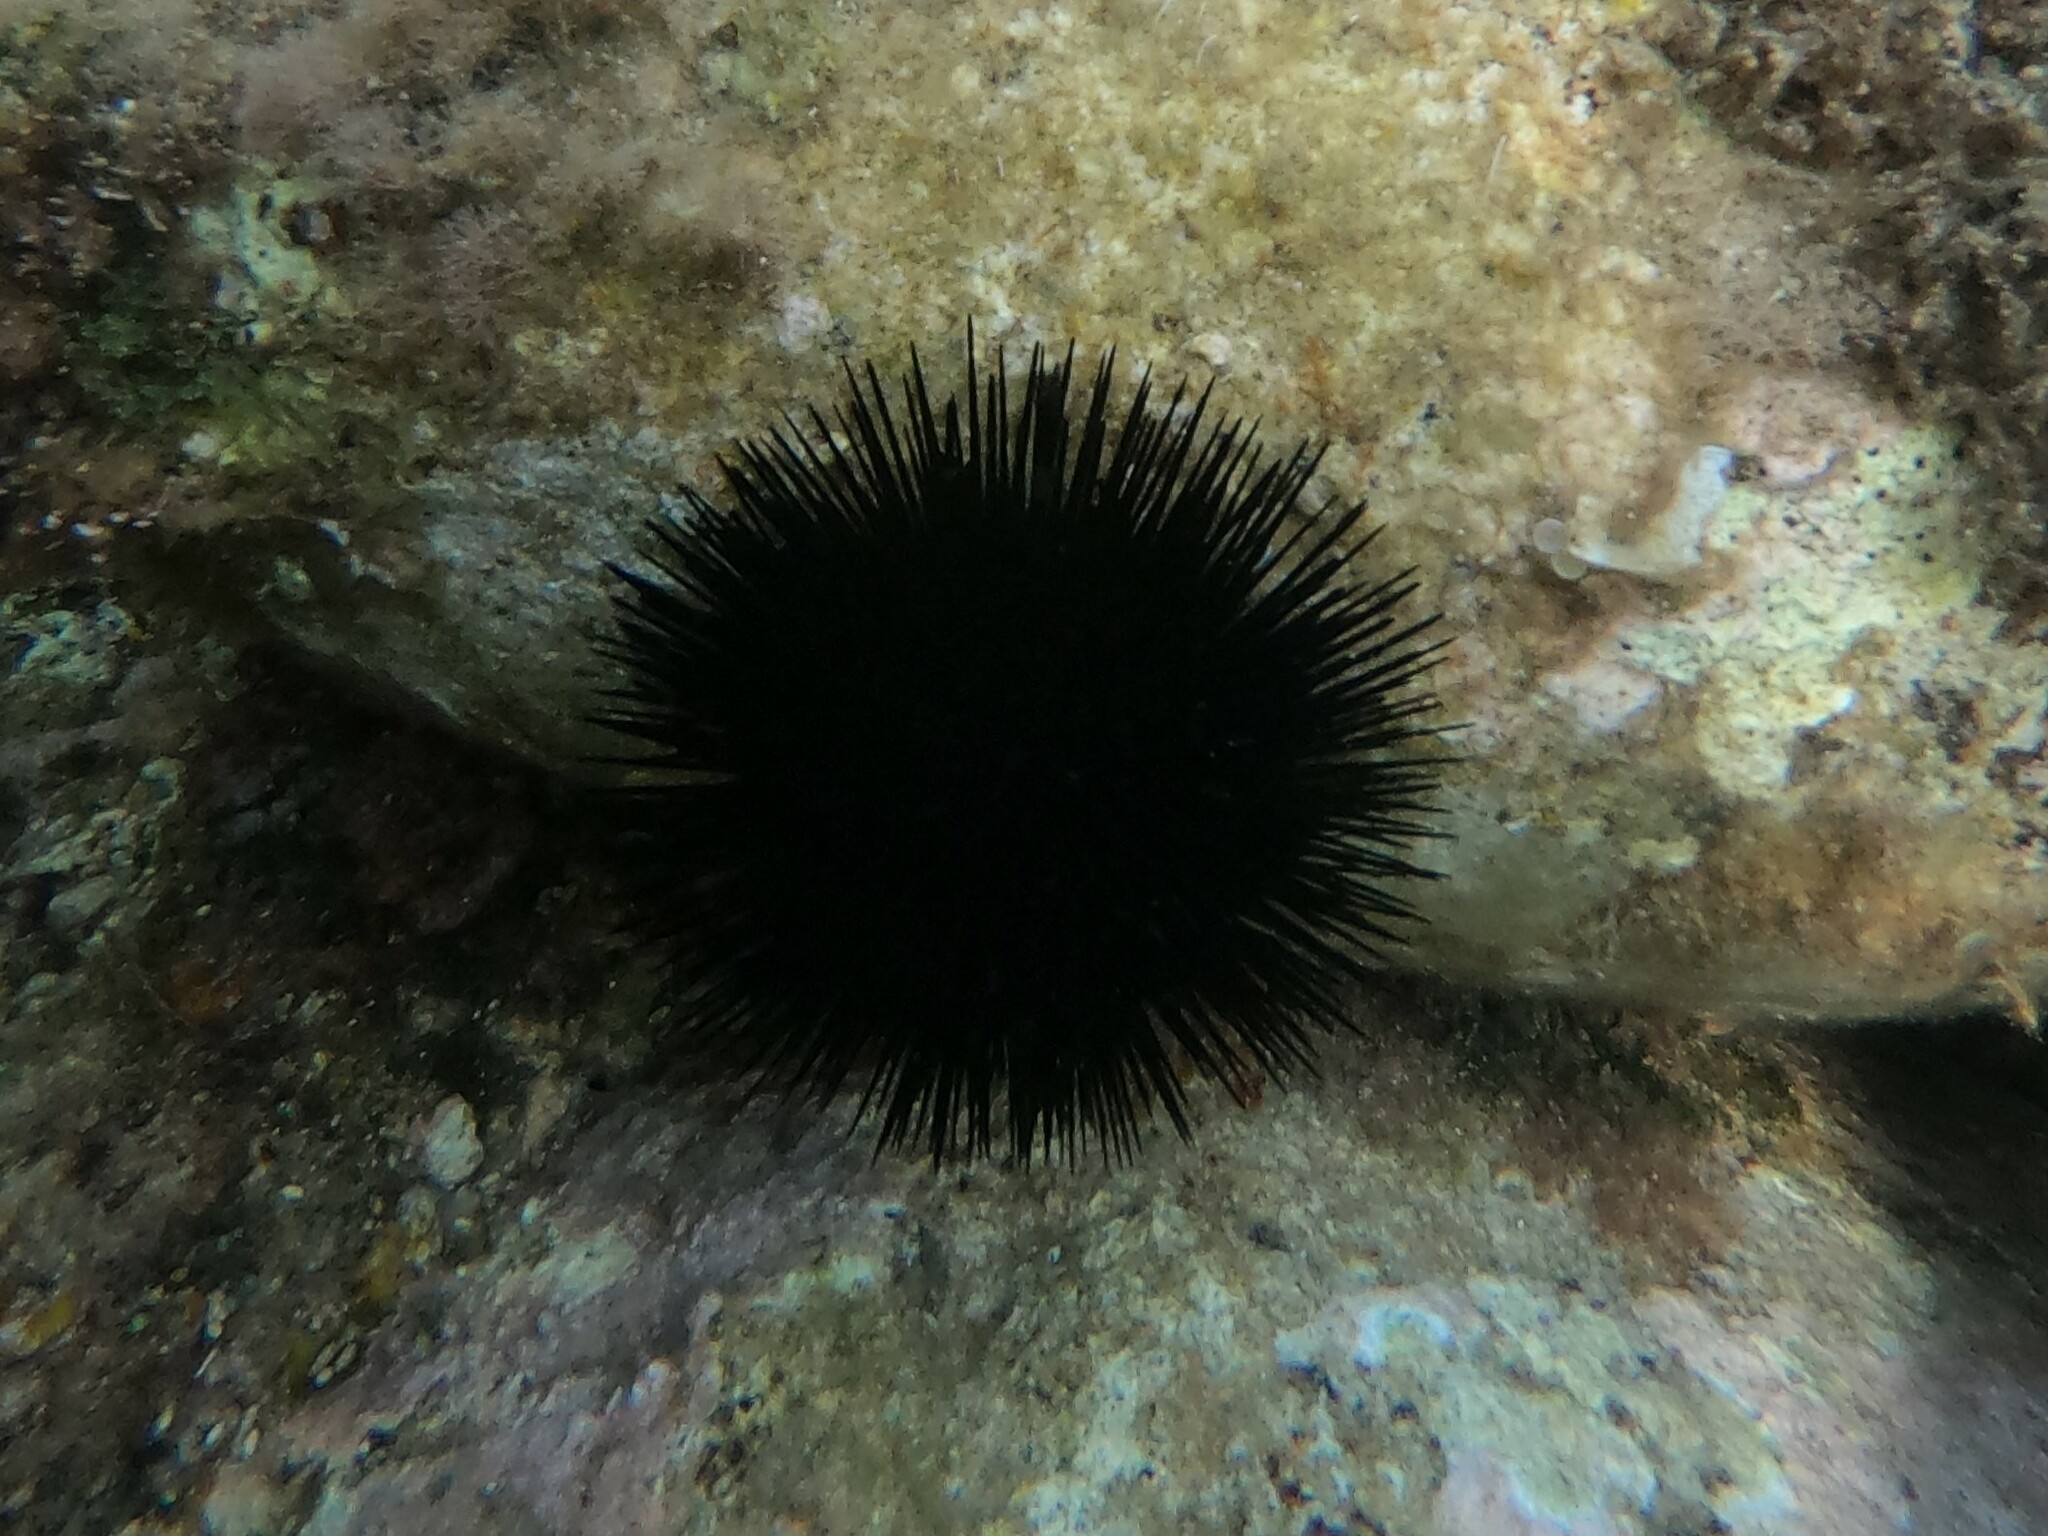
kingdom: Animalia
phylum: Echinodermata
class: Echinoidea
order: Arbacioida
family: Arbaciidae
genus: Arbacia
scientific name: Arbacia lixula
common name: Black sea urchin
